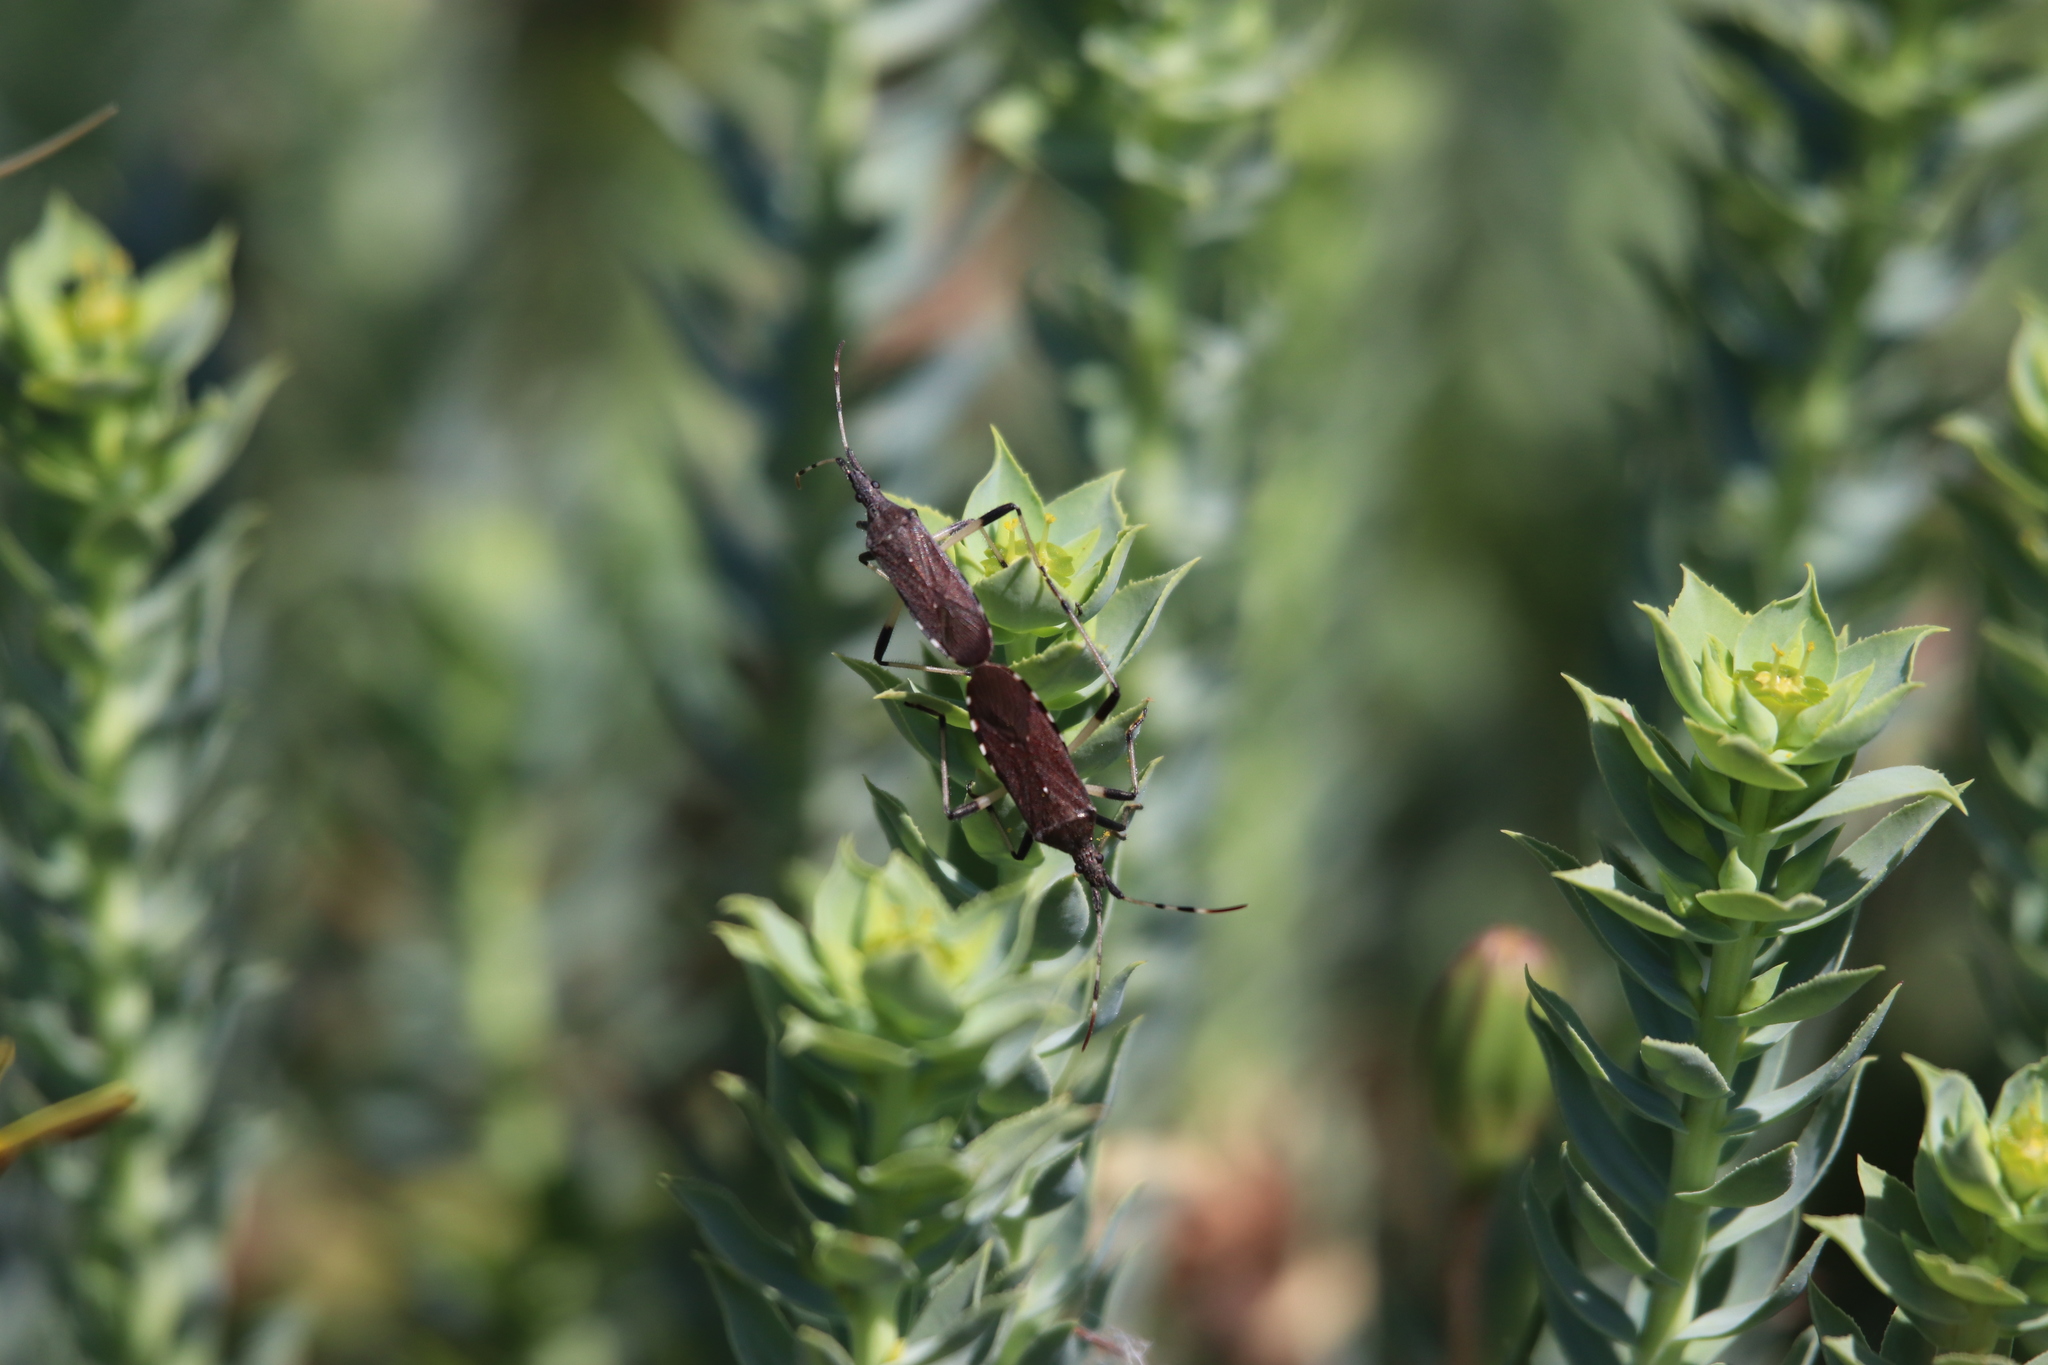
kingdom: Animalia
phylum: Arthropoda
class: Insecta
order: Hemiptera
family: Stenocephalidae
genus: Dicranocephalus
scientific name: Dicranocephalus albipes
